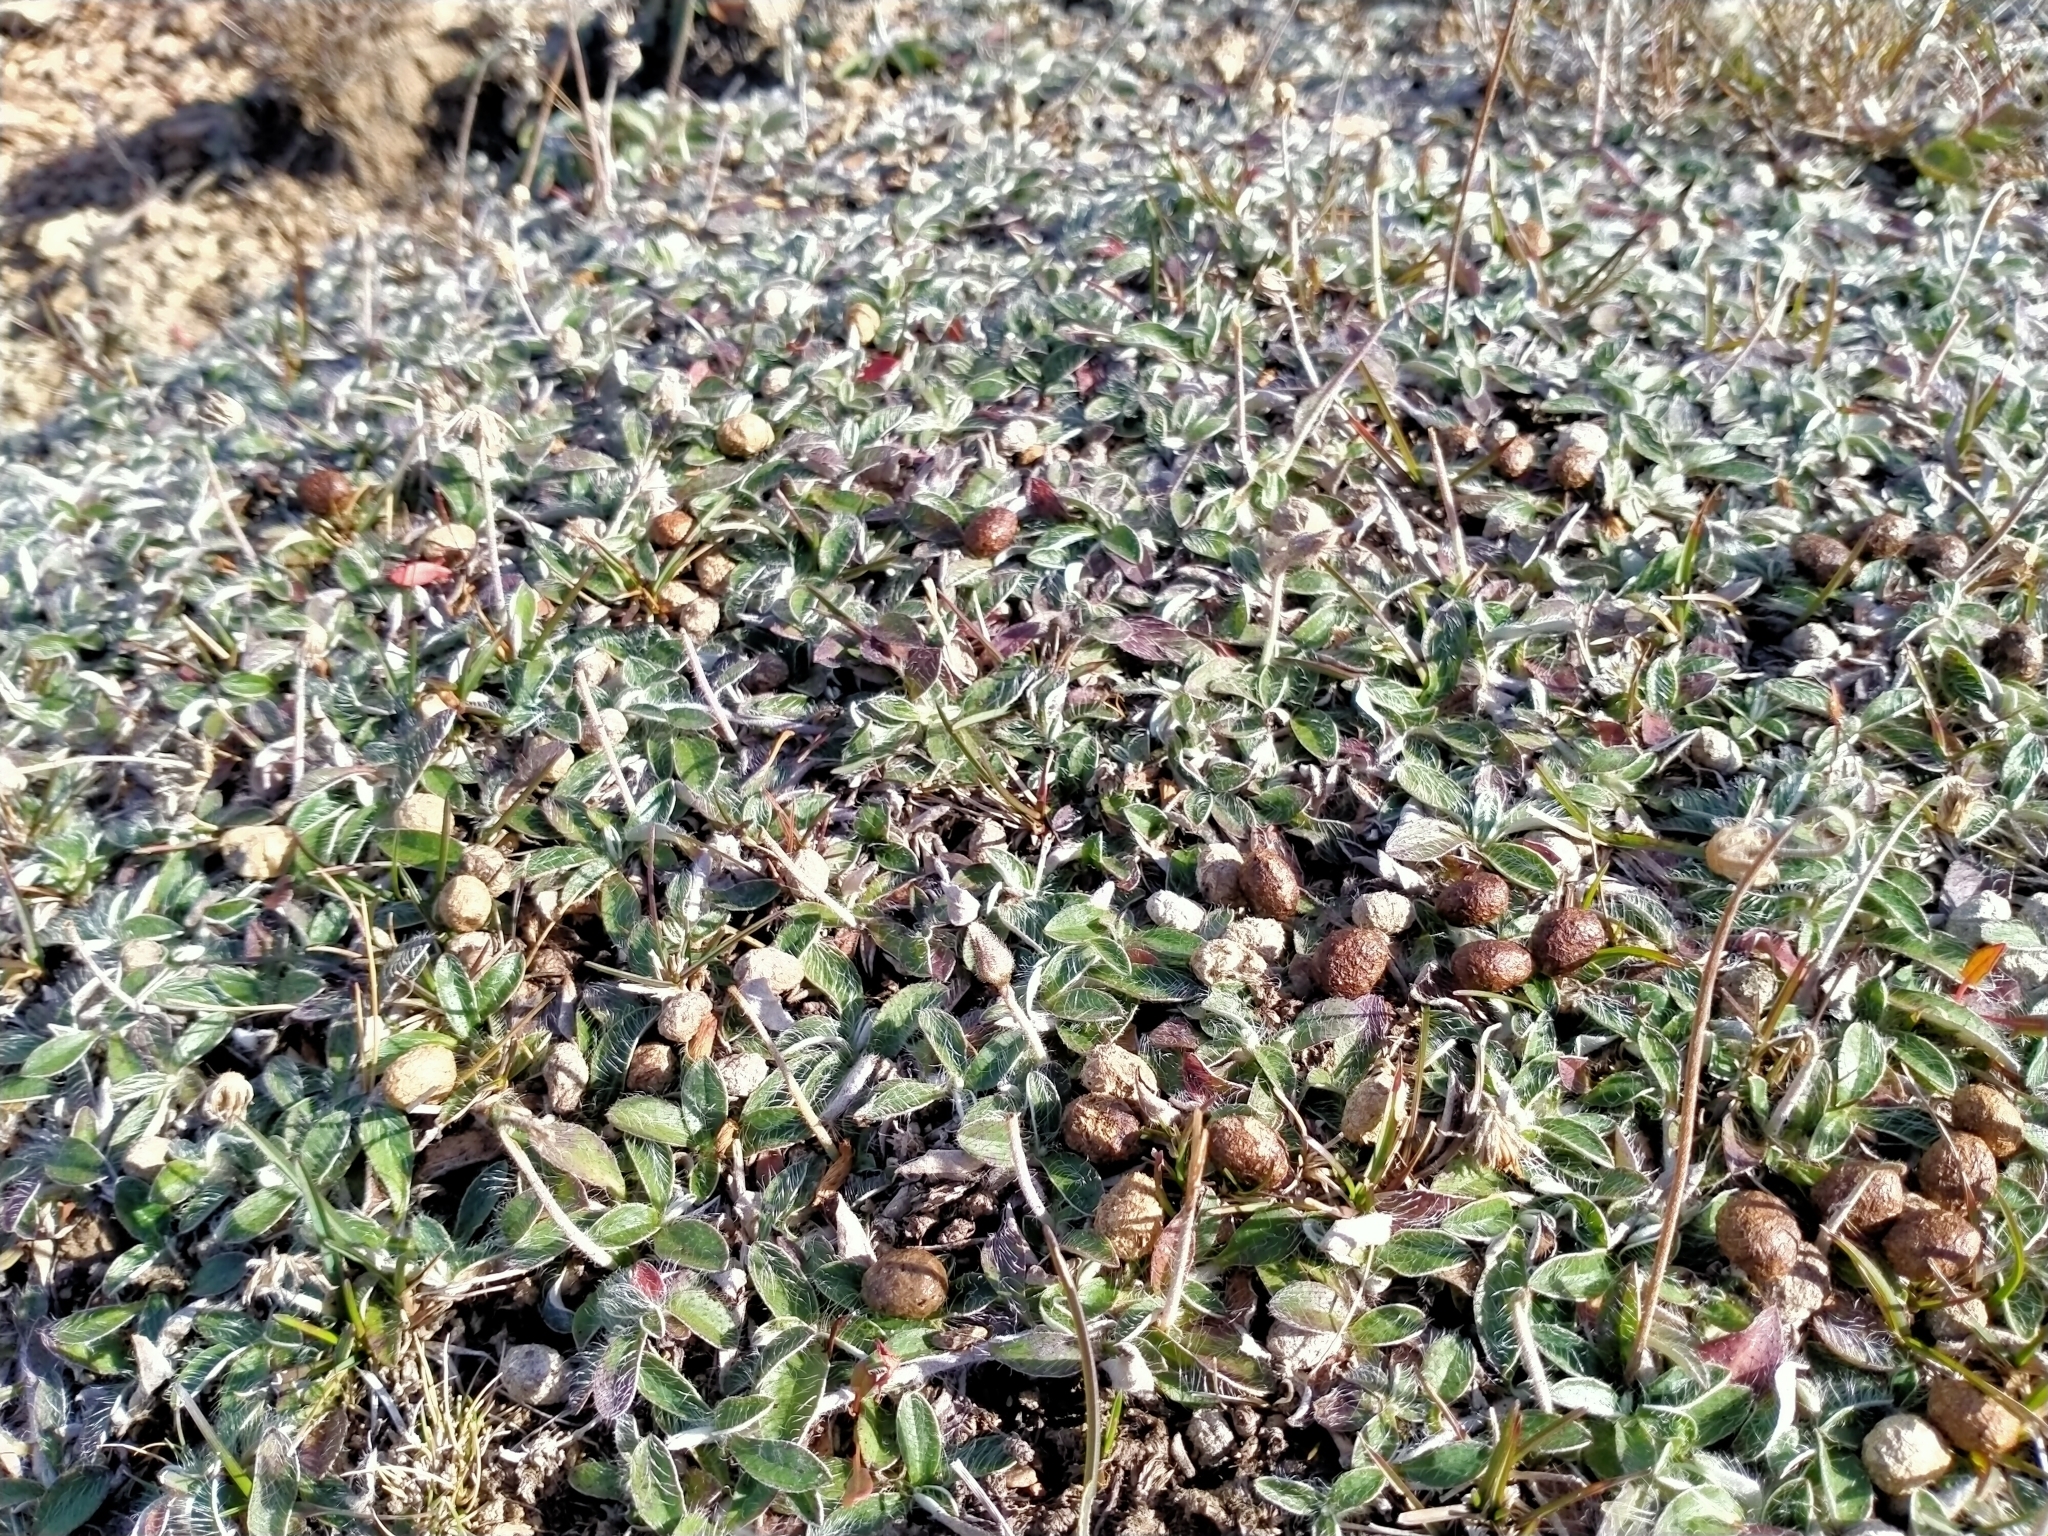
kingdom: Plantae
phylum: Tracheophyta
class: Magnoliopsida
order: Asterales
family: Asteraceae
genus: Pilosella
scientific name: Pilosella officinarum
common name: Mouse-ear hawkweed
